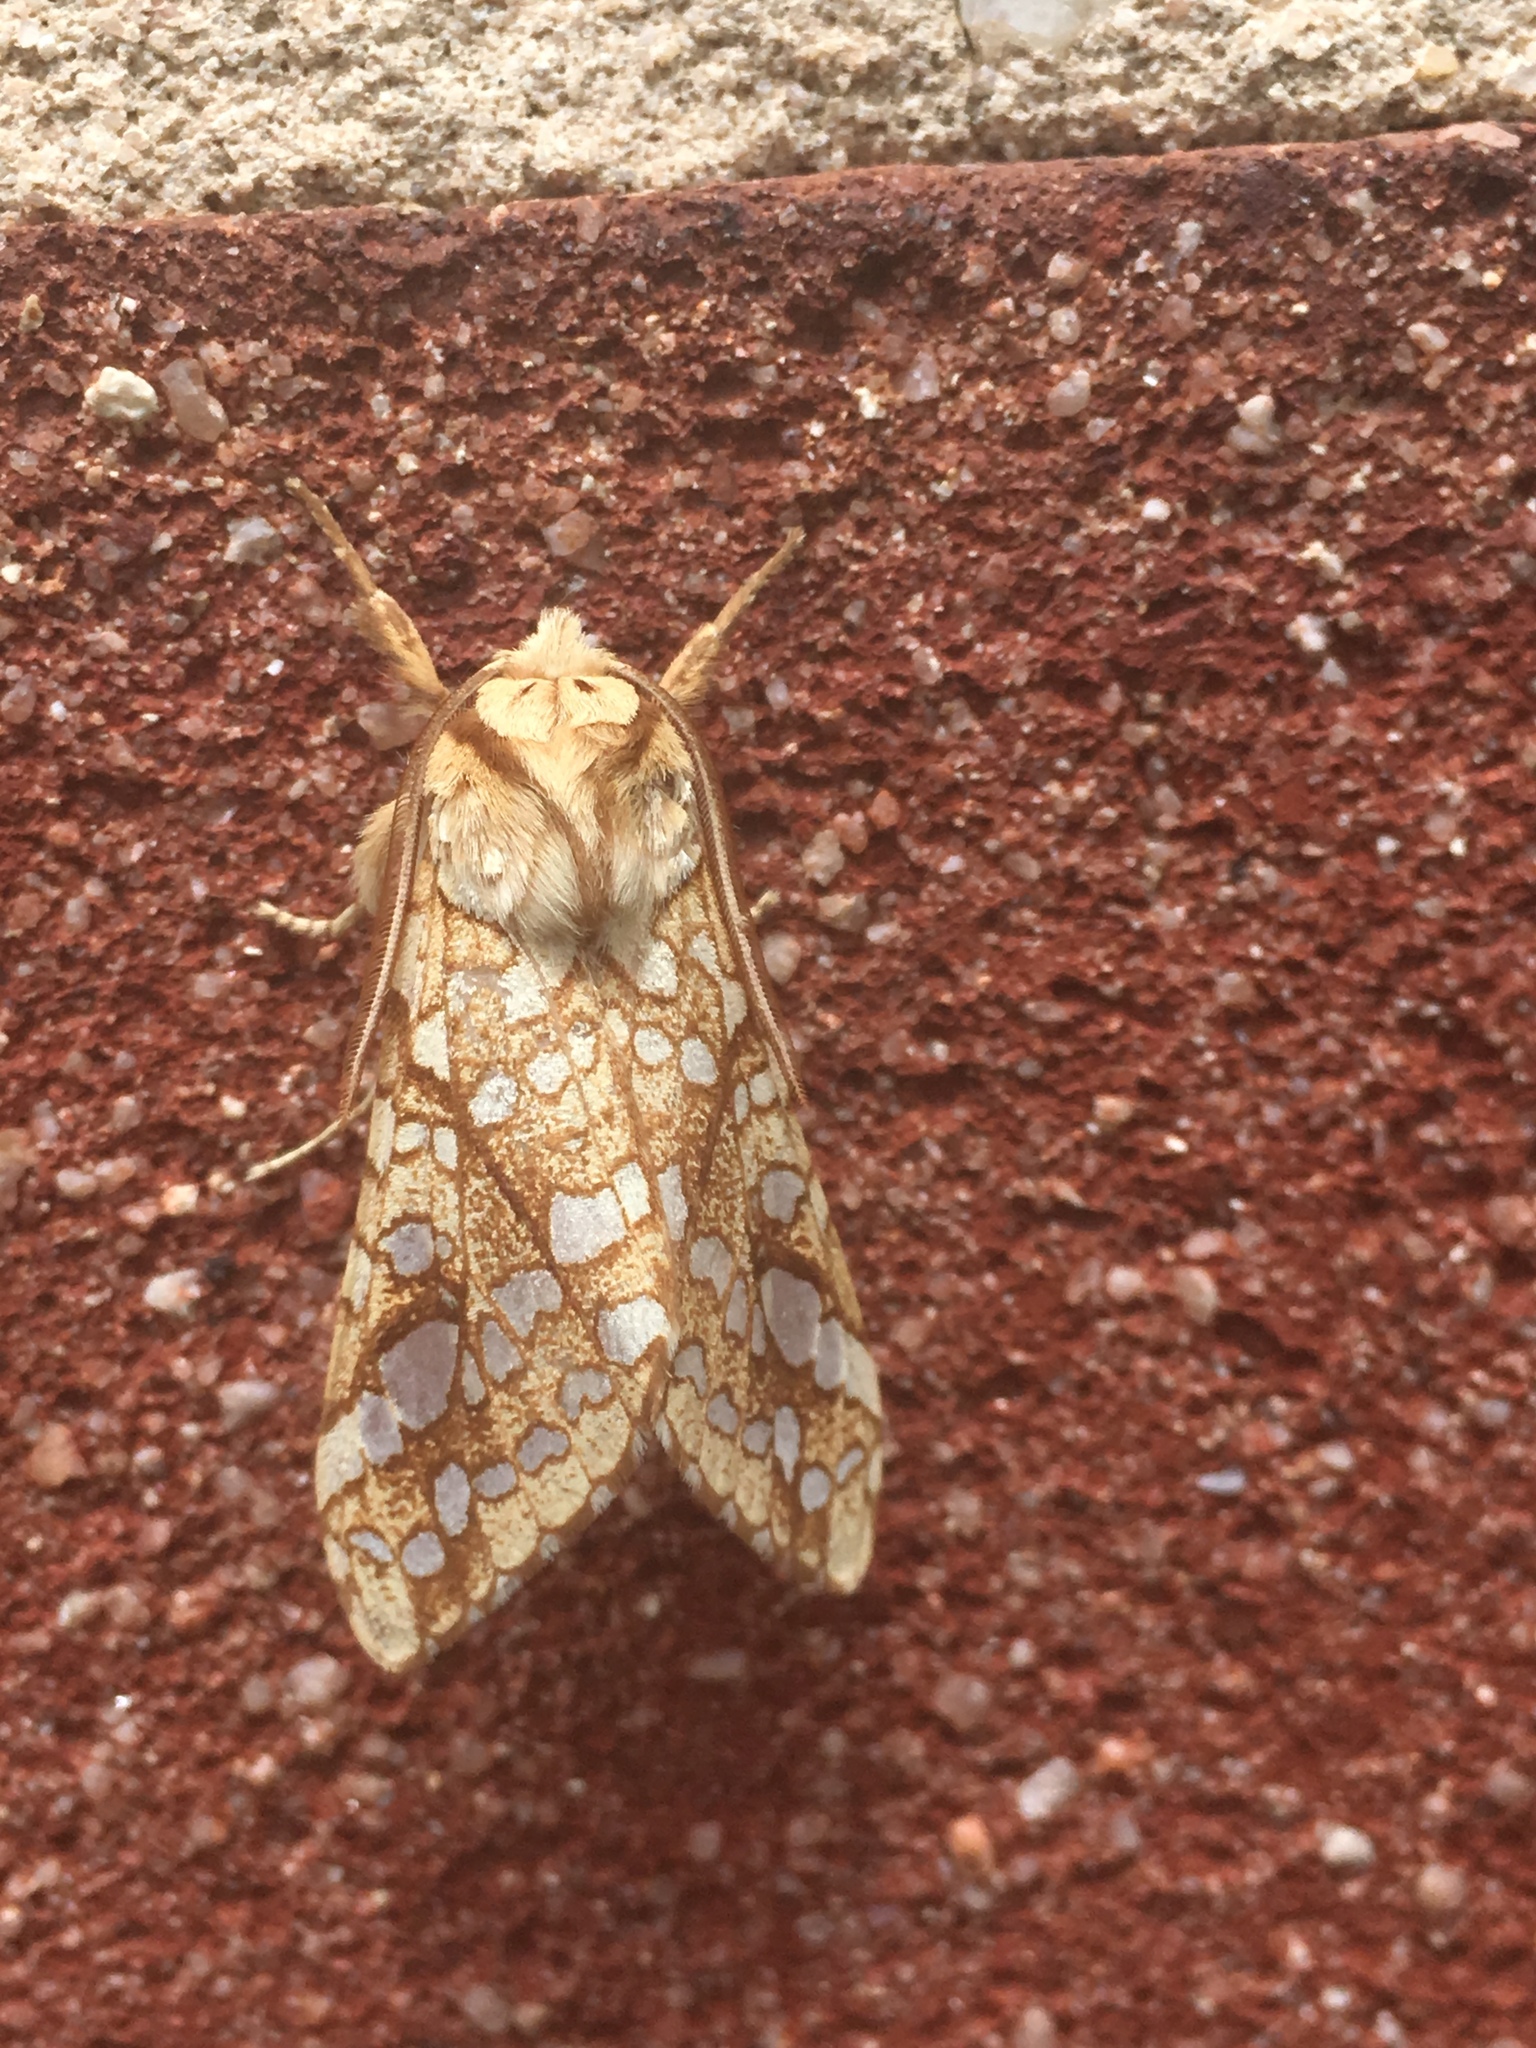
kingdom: Animalia
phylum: Arthropoda
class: Insecta
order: Lepidoptera
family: Erebidae
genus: Lophocampa
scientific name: Lophocampa caryae
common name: Hickory tussock moth
